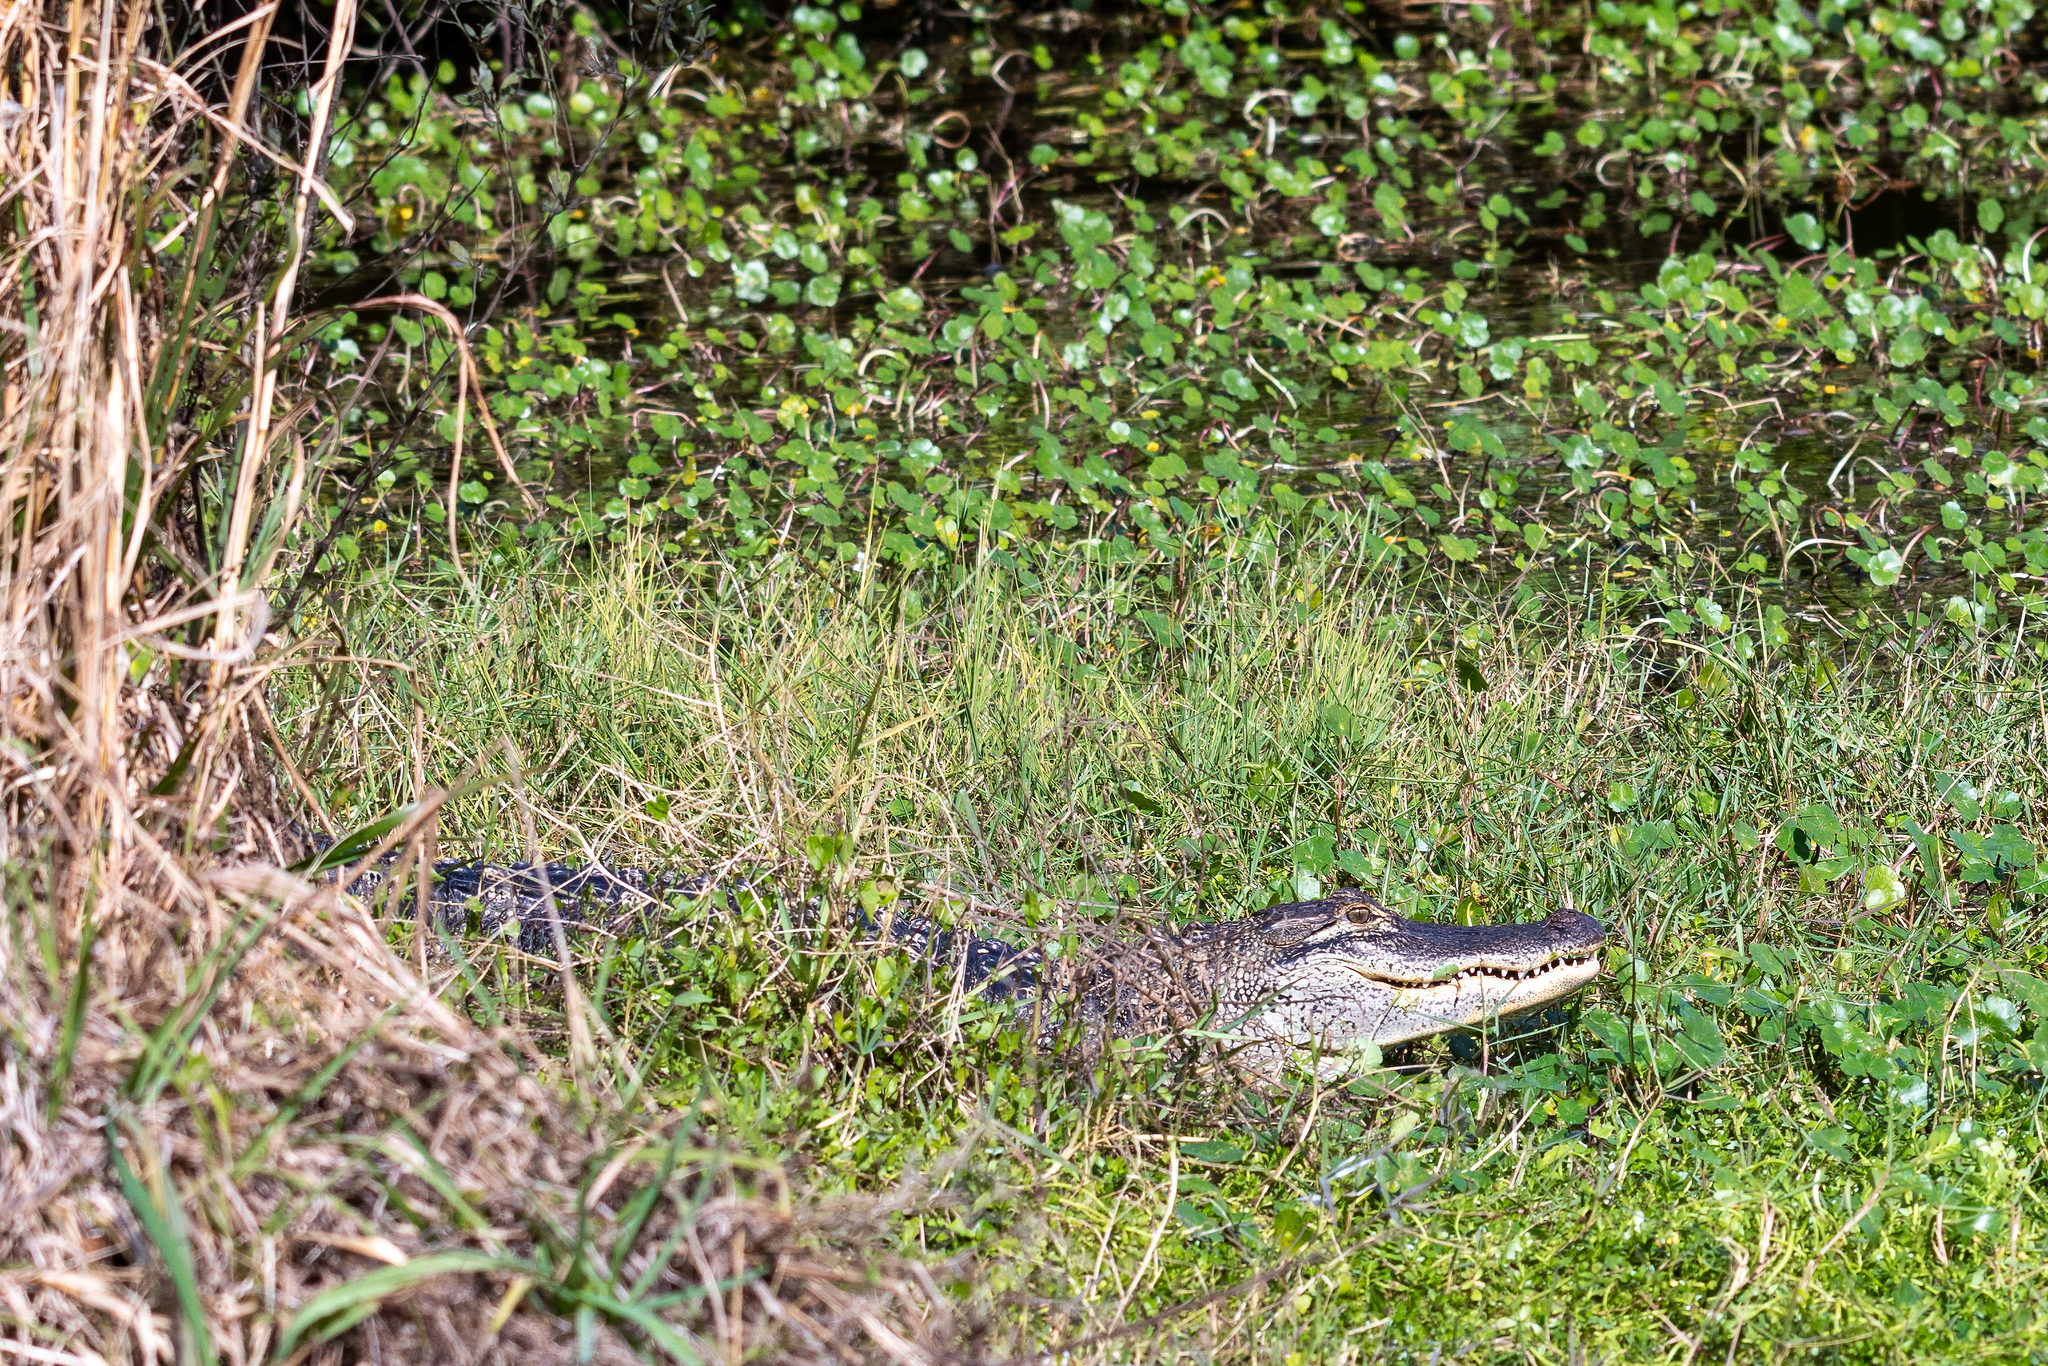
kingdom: Animalia
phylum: Chordata
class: Crocodylia
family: Alligatoridae
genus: Alligator
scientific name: Alligator mississippiensis
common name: American alligator
